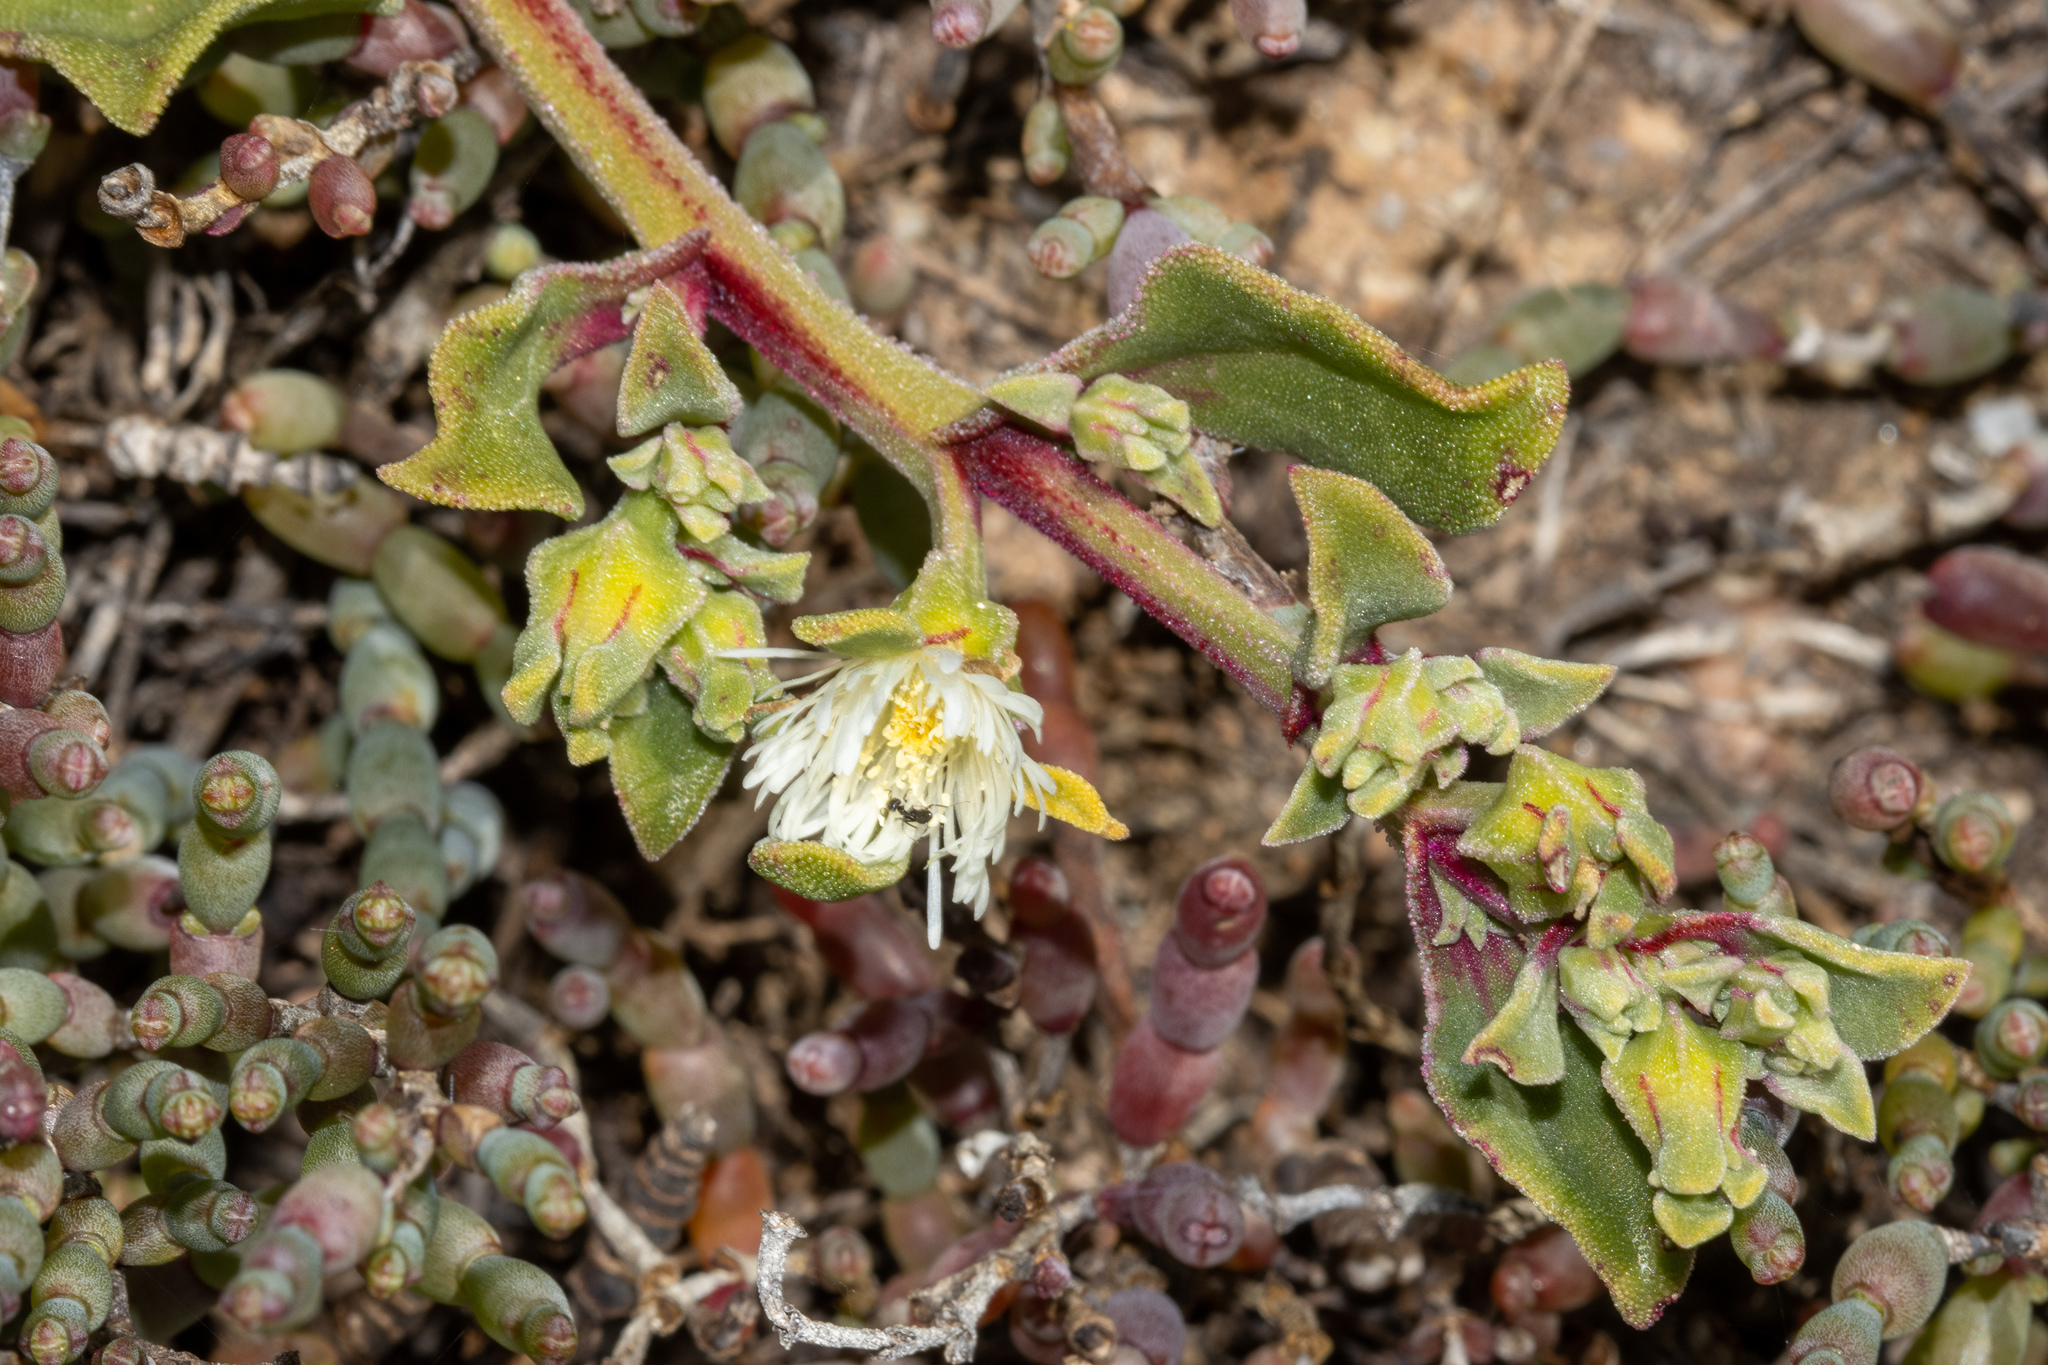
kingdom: Plantae
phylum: Tracheophyta
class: Magnoliopsida
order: Caryophyllales
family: Aizoaceae
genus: Mesembryanthemum
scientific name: Mesembryanthemum crystallinum
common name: Common iceplant
